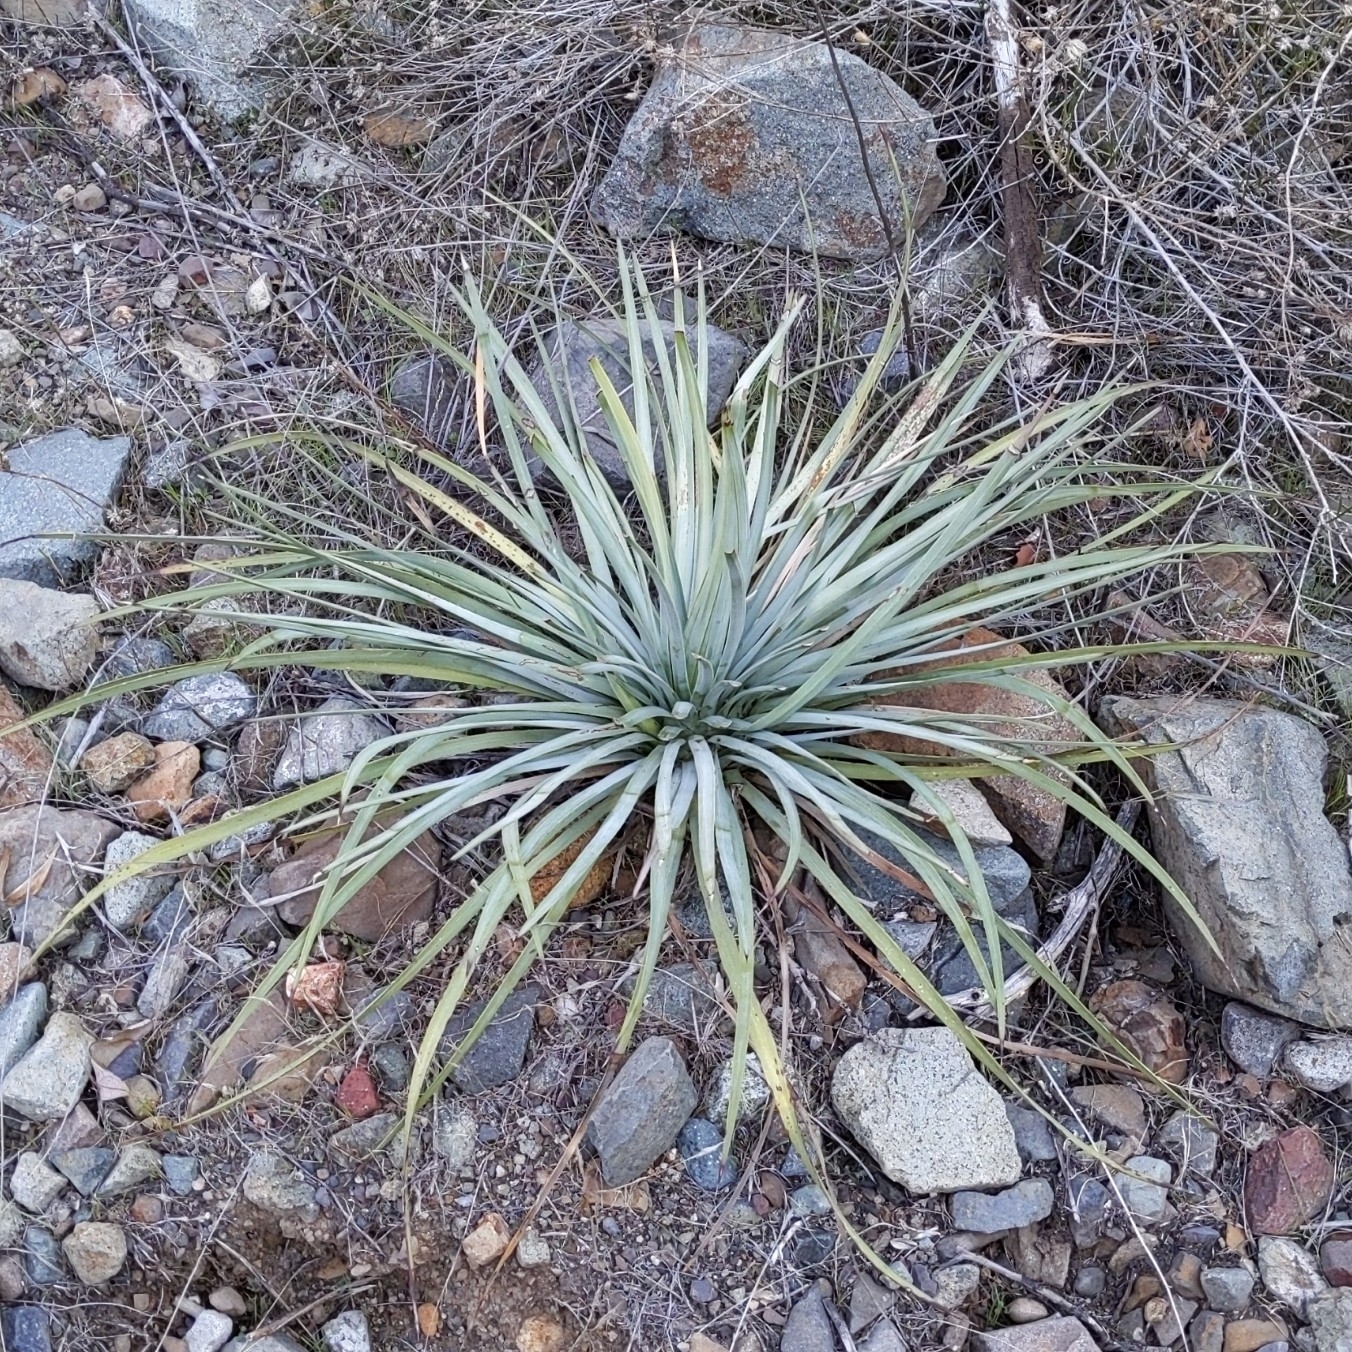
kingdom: Plantae
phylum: Tracheophyta
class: Liliopsida
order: Asparagales
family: Asparagaceae
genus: Hesperoyucca
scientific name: Hesperoyucca whipplei
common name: Our lord's-candle
